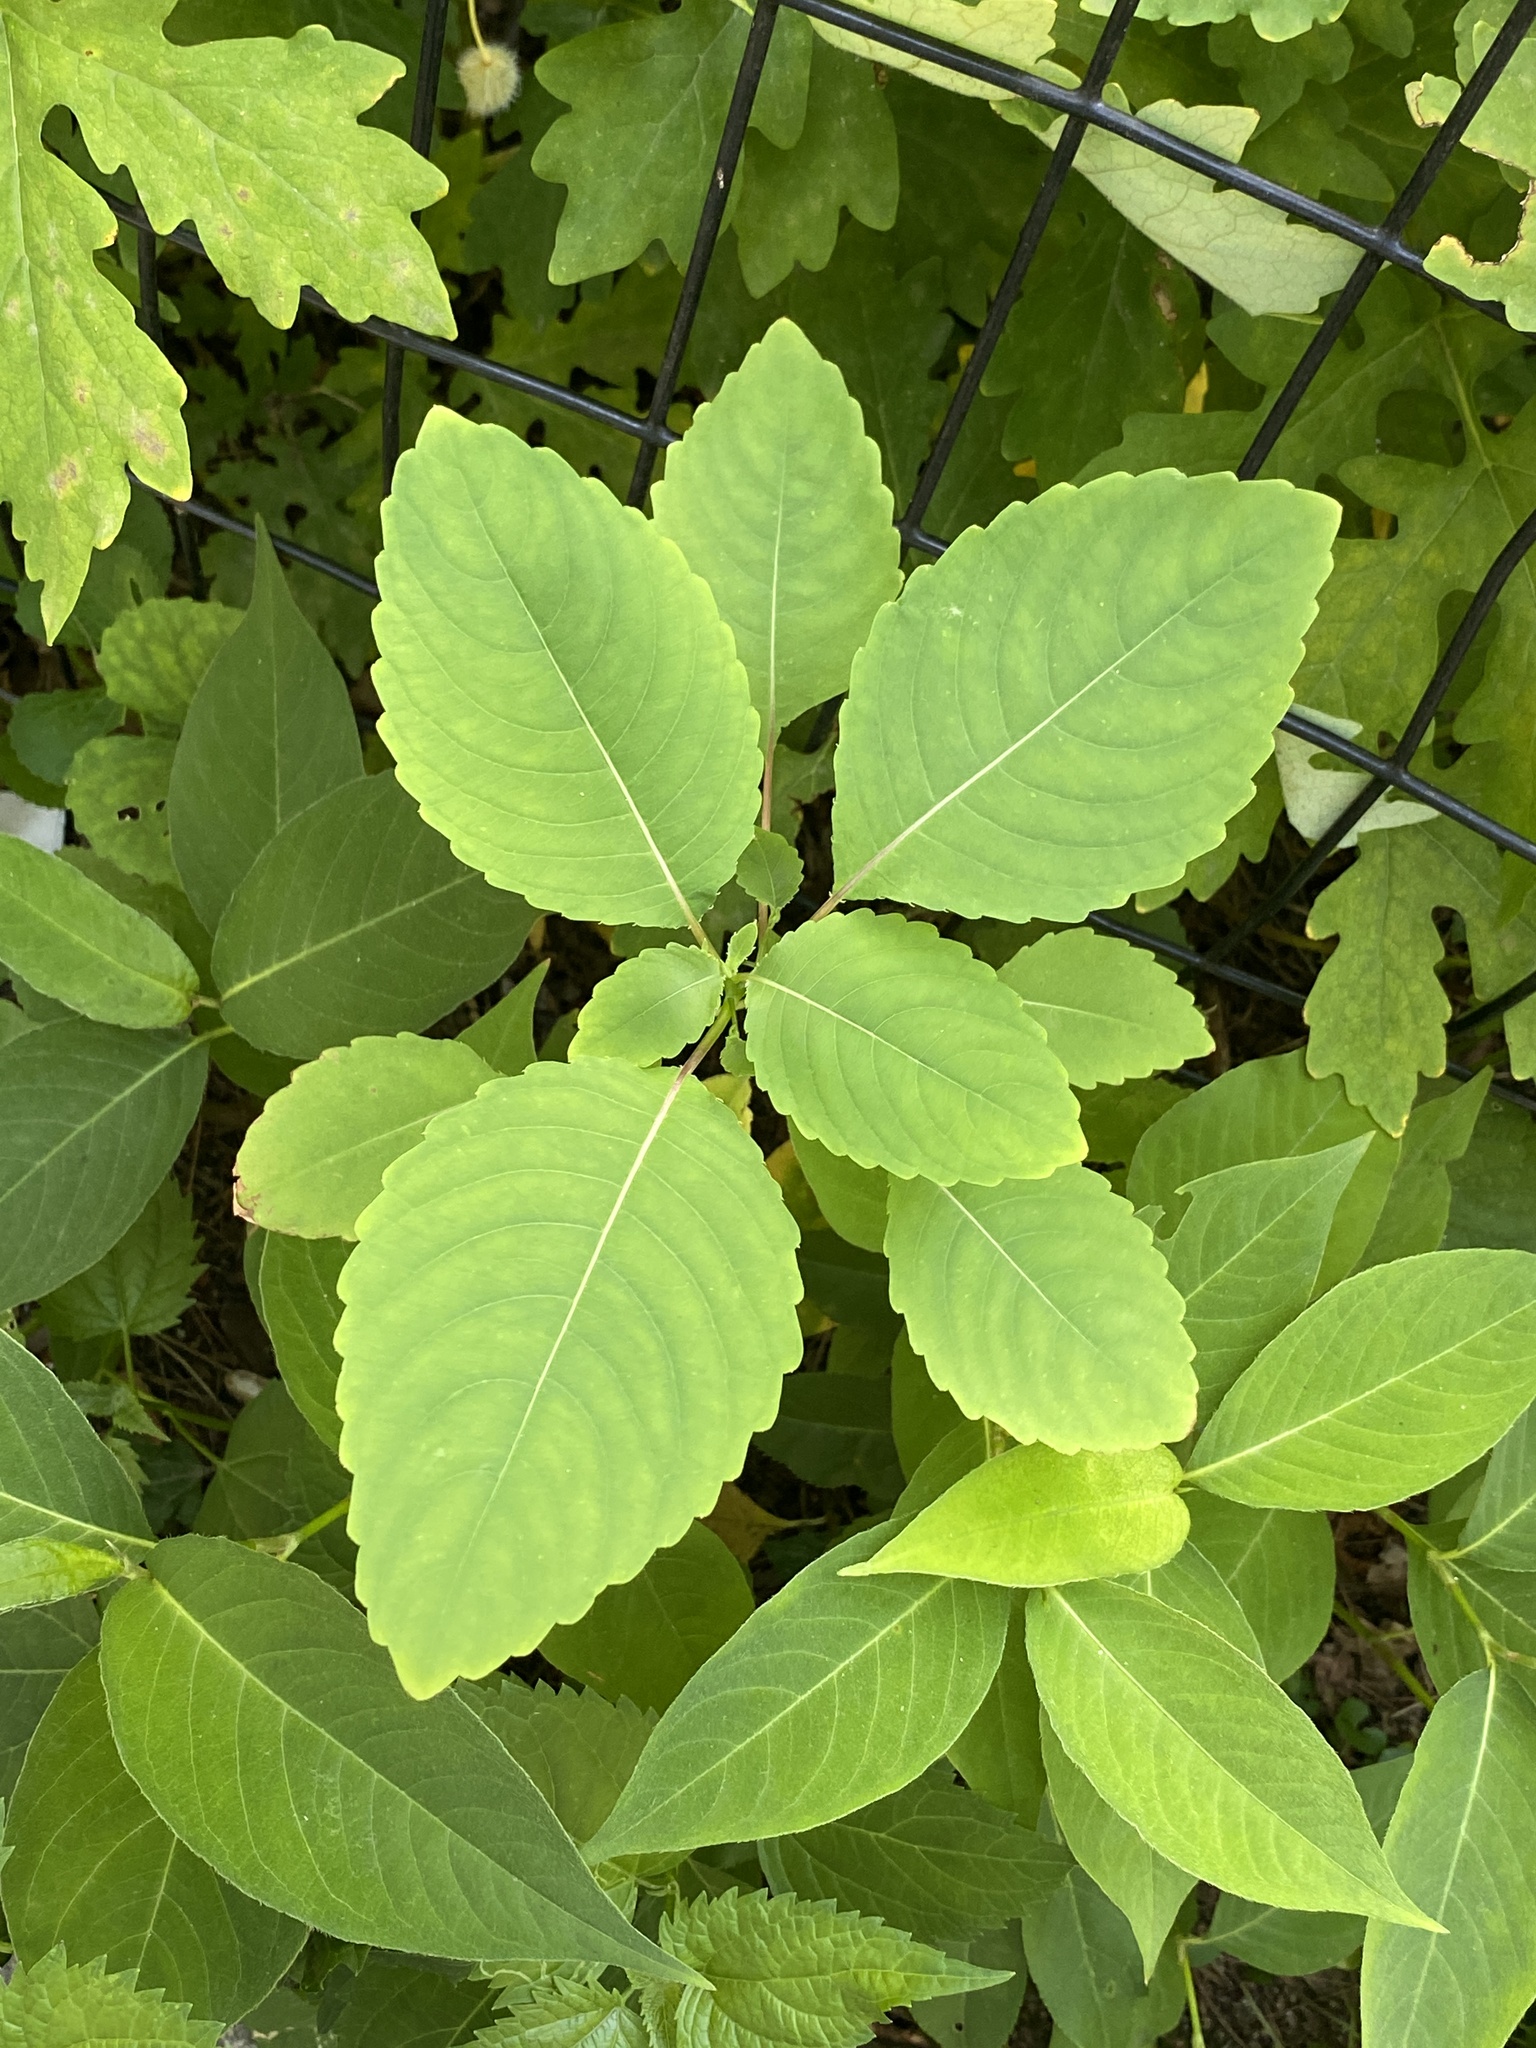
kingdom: Plantae
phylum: Tracheophyta
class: Magnoliopsida
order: Ericales
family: Balsaminaceae
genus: Impatiens
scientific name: Impatiens
